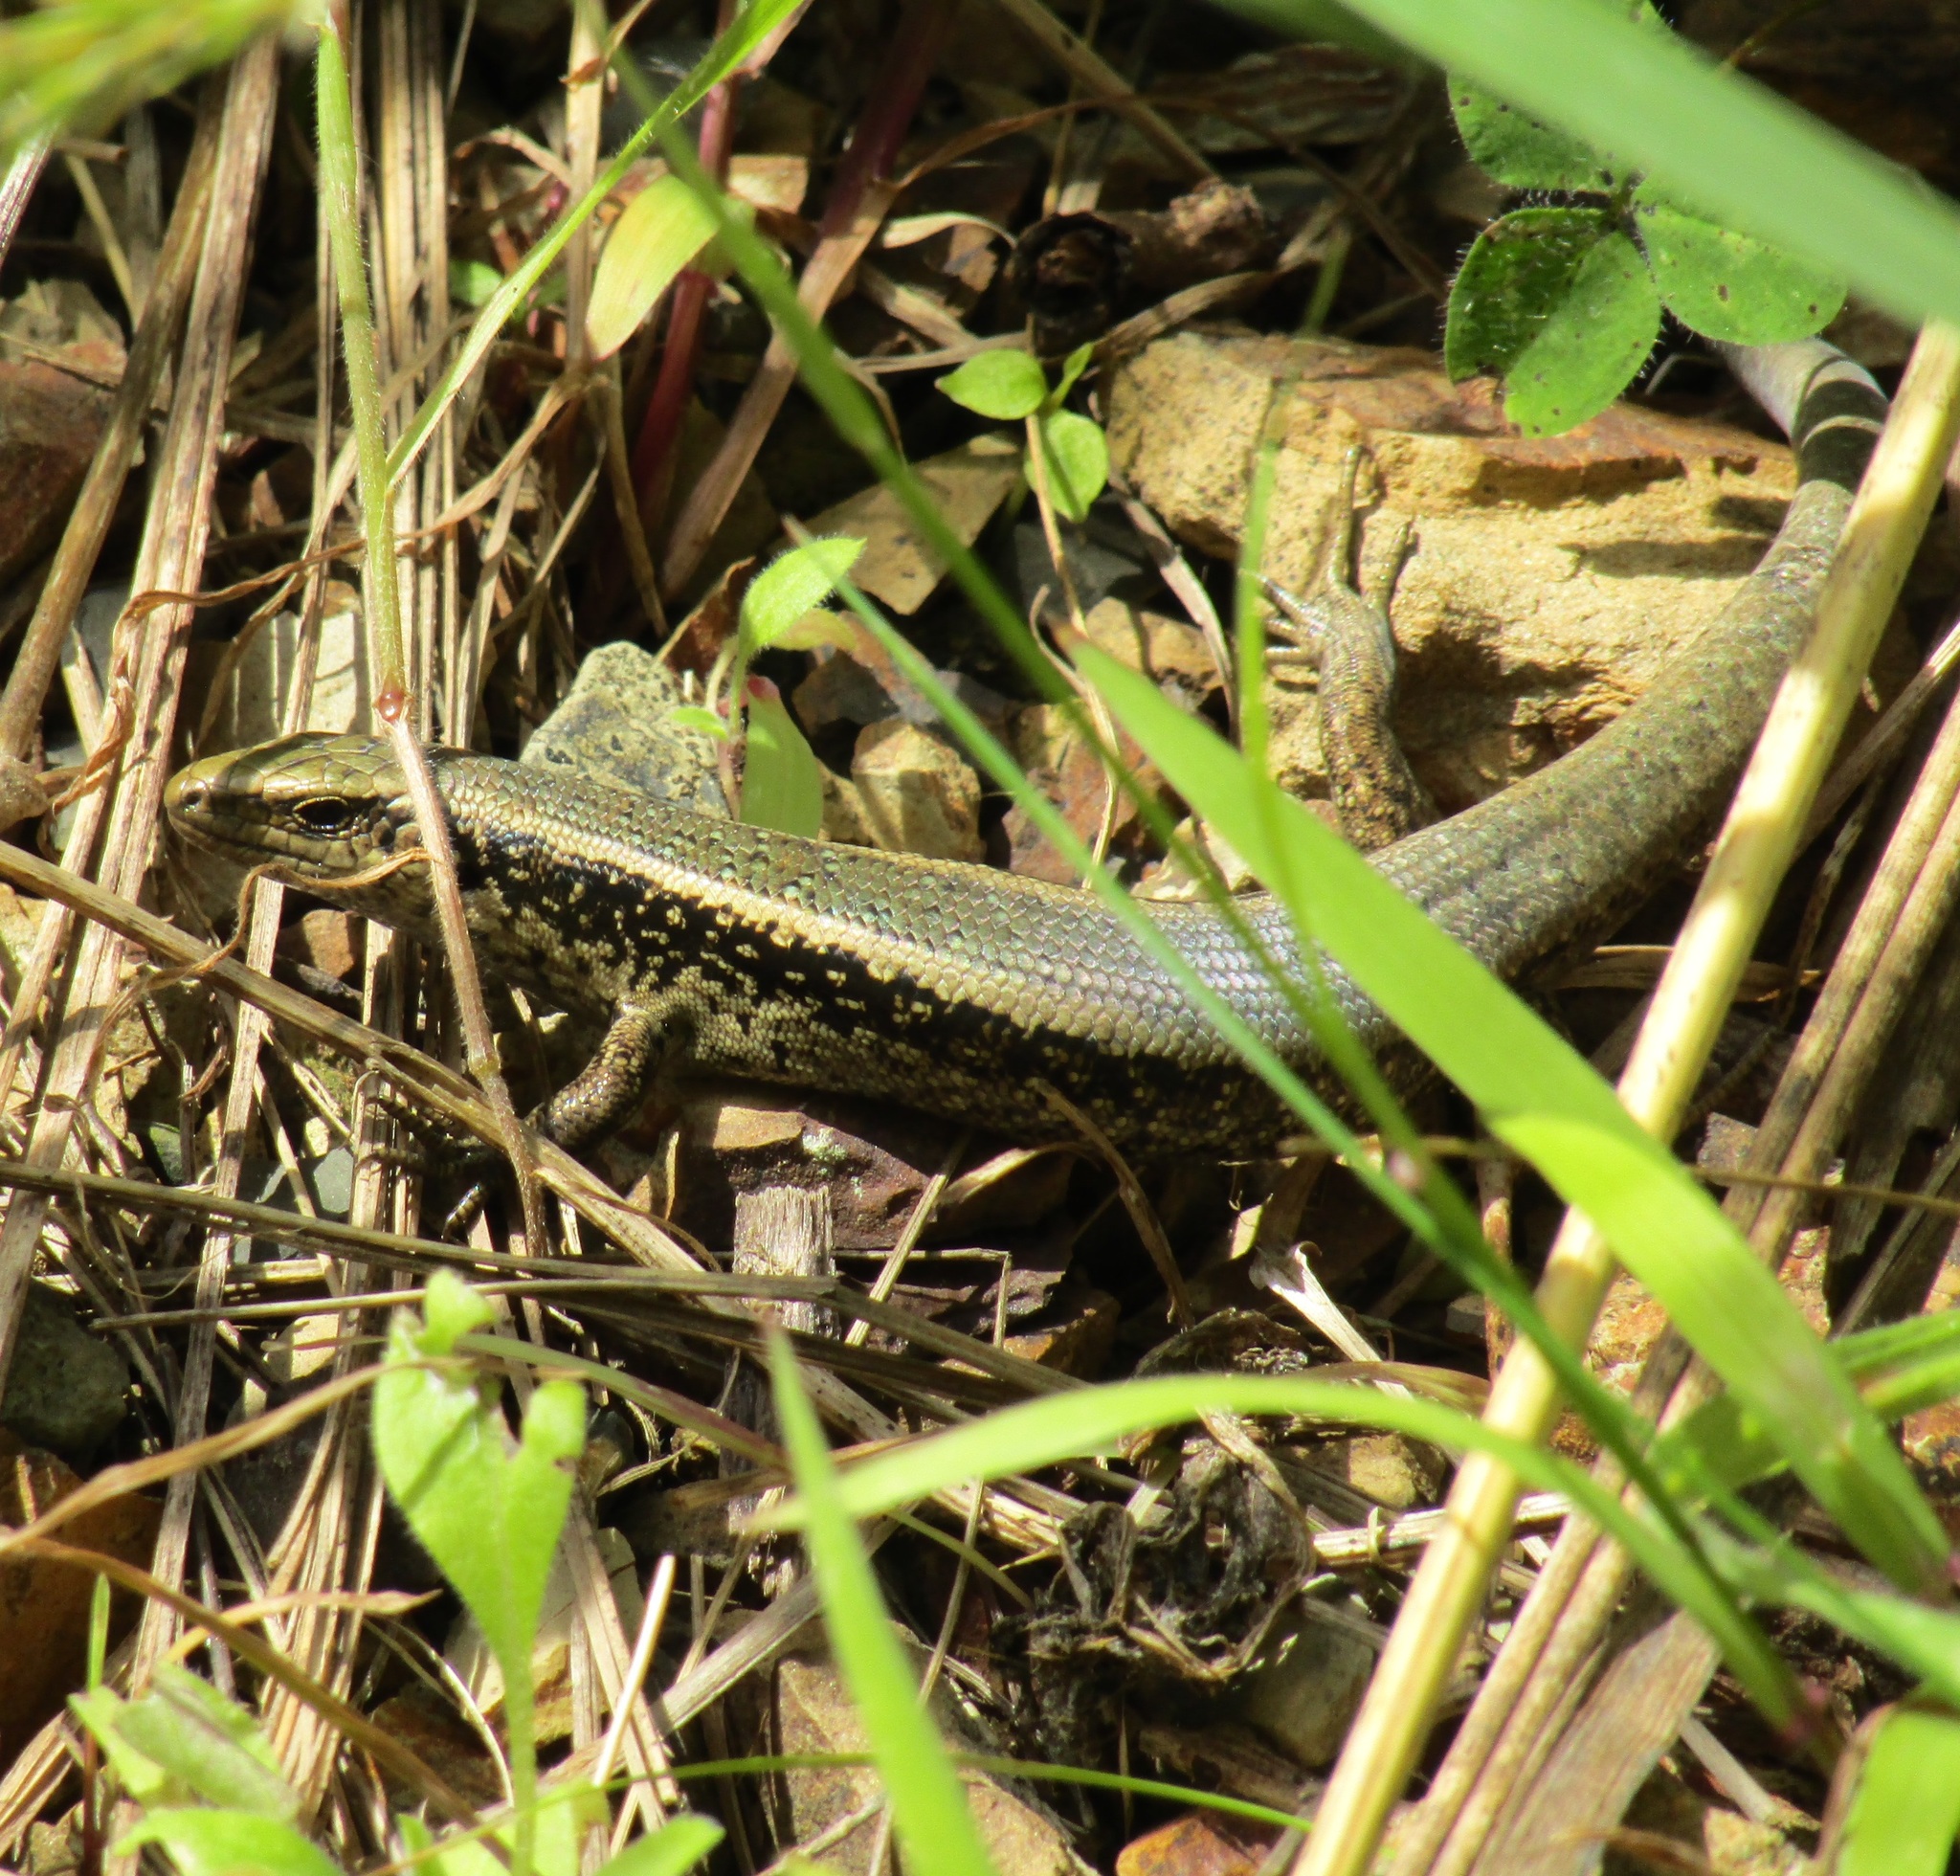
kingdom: Animalia
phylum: Chordata
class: Squamata
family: Scincidae
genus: Oligosoma
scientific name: Oligosoma kokowai
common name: Northern spotted skink
